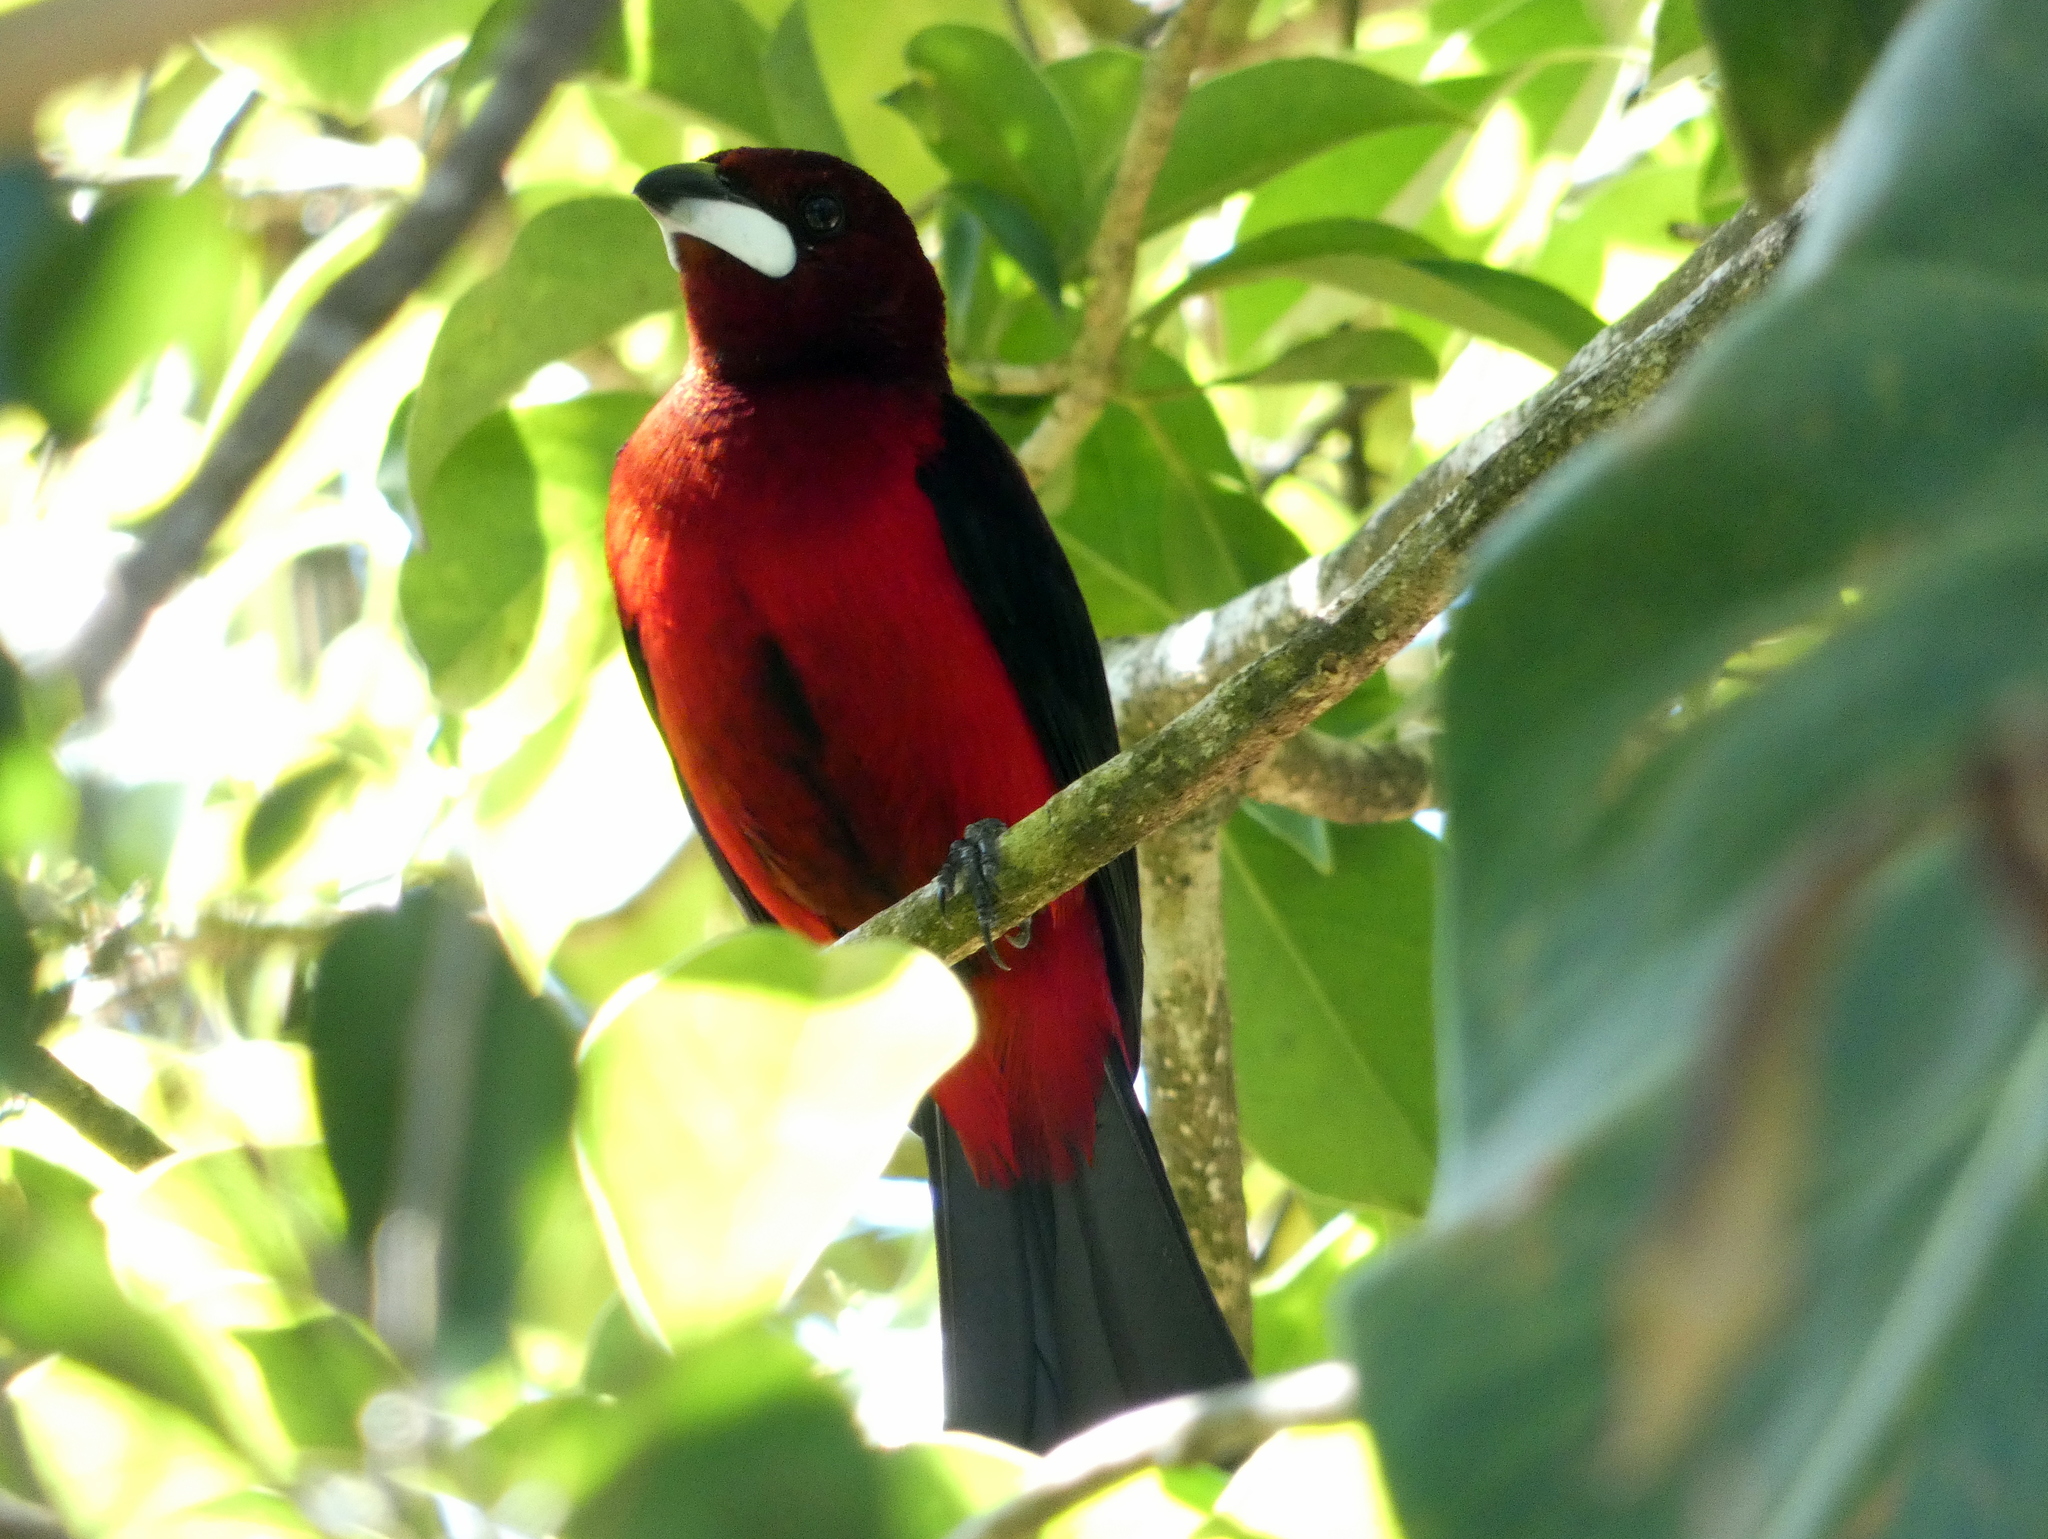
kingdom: Animalia
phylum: Chordata
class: Aves
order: Passeriformes
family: Thraupidae
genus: Ramphocelus
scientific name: Ramphocelus dimidiatus
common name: Crimson-backed tanager
